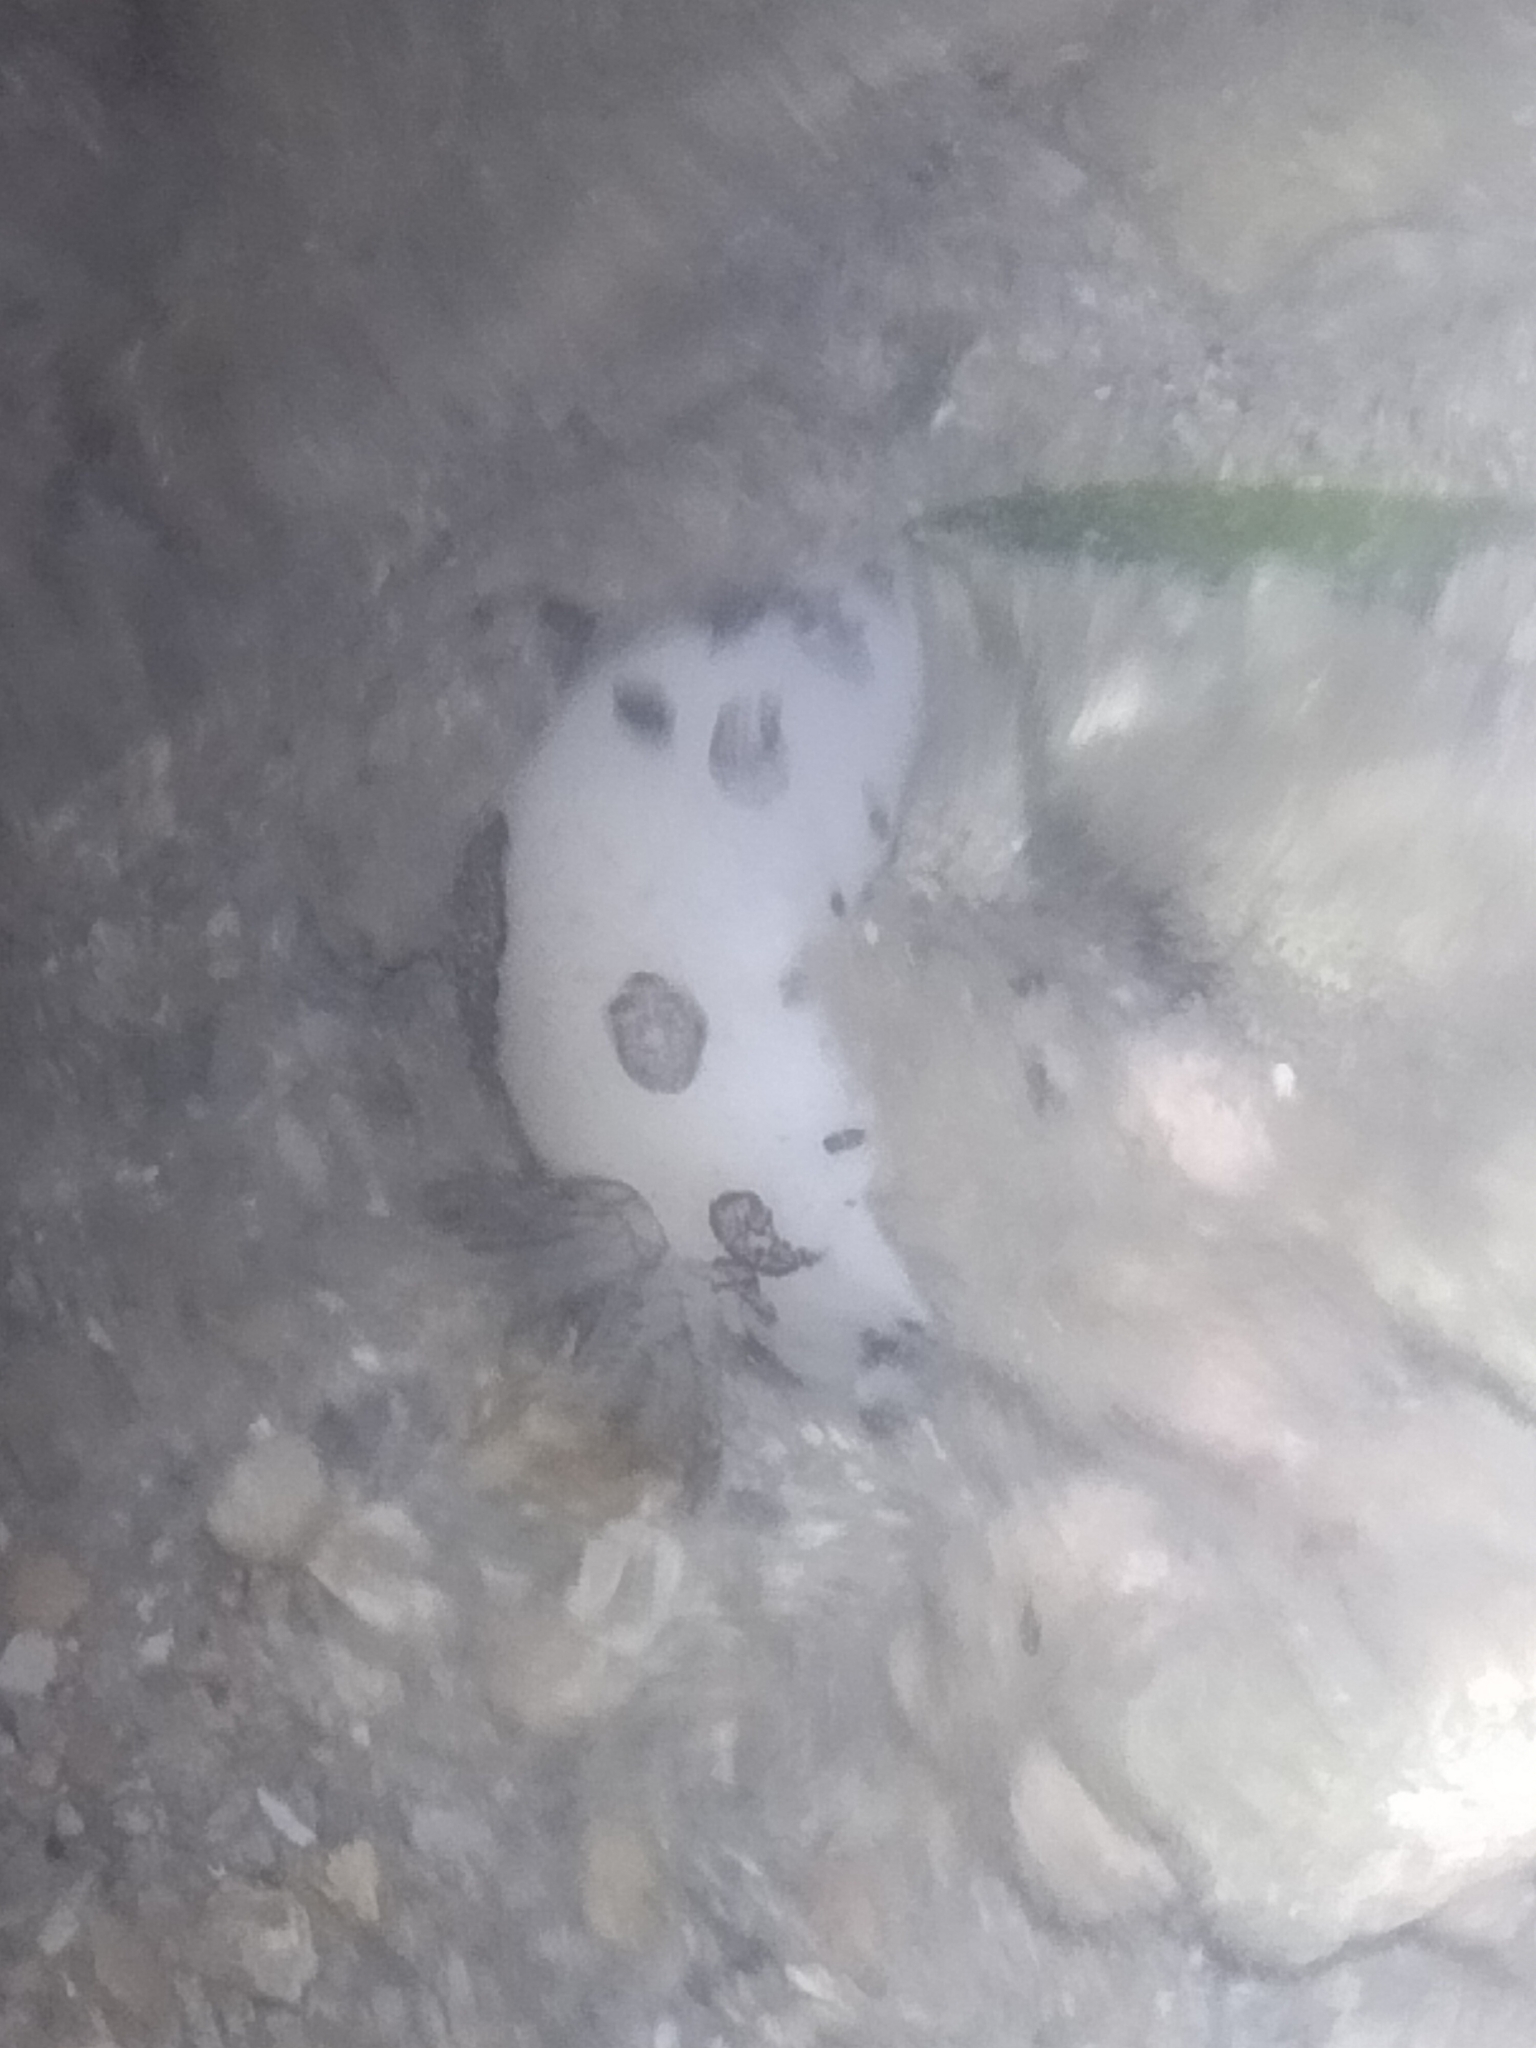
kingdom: Animalia
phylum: Mollusca
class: Gastropoda
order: Nudibranchia
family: Discodorididae
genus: Jorunna
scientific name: Jorunna funebris
